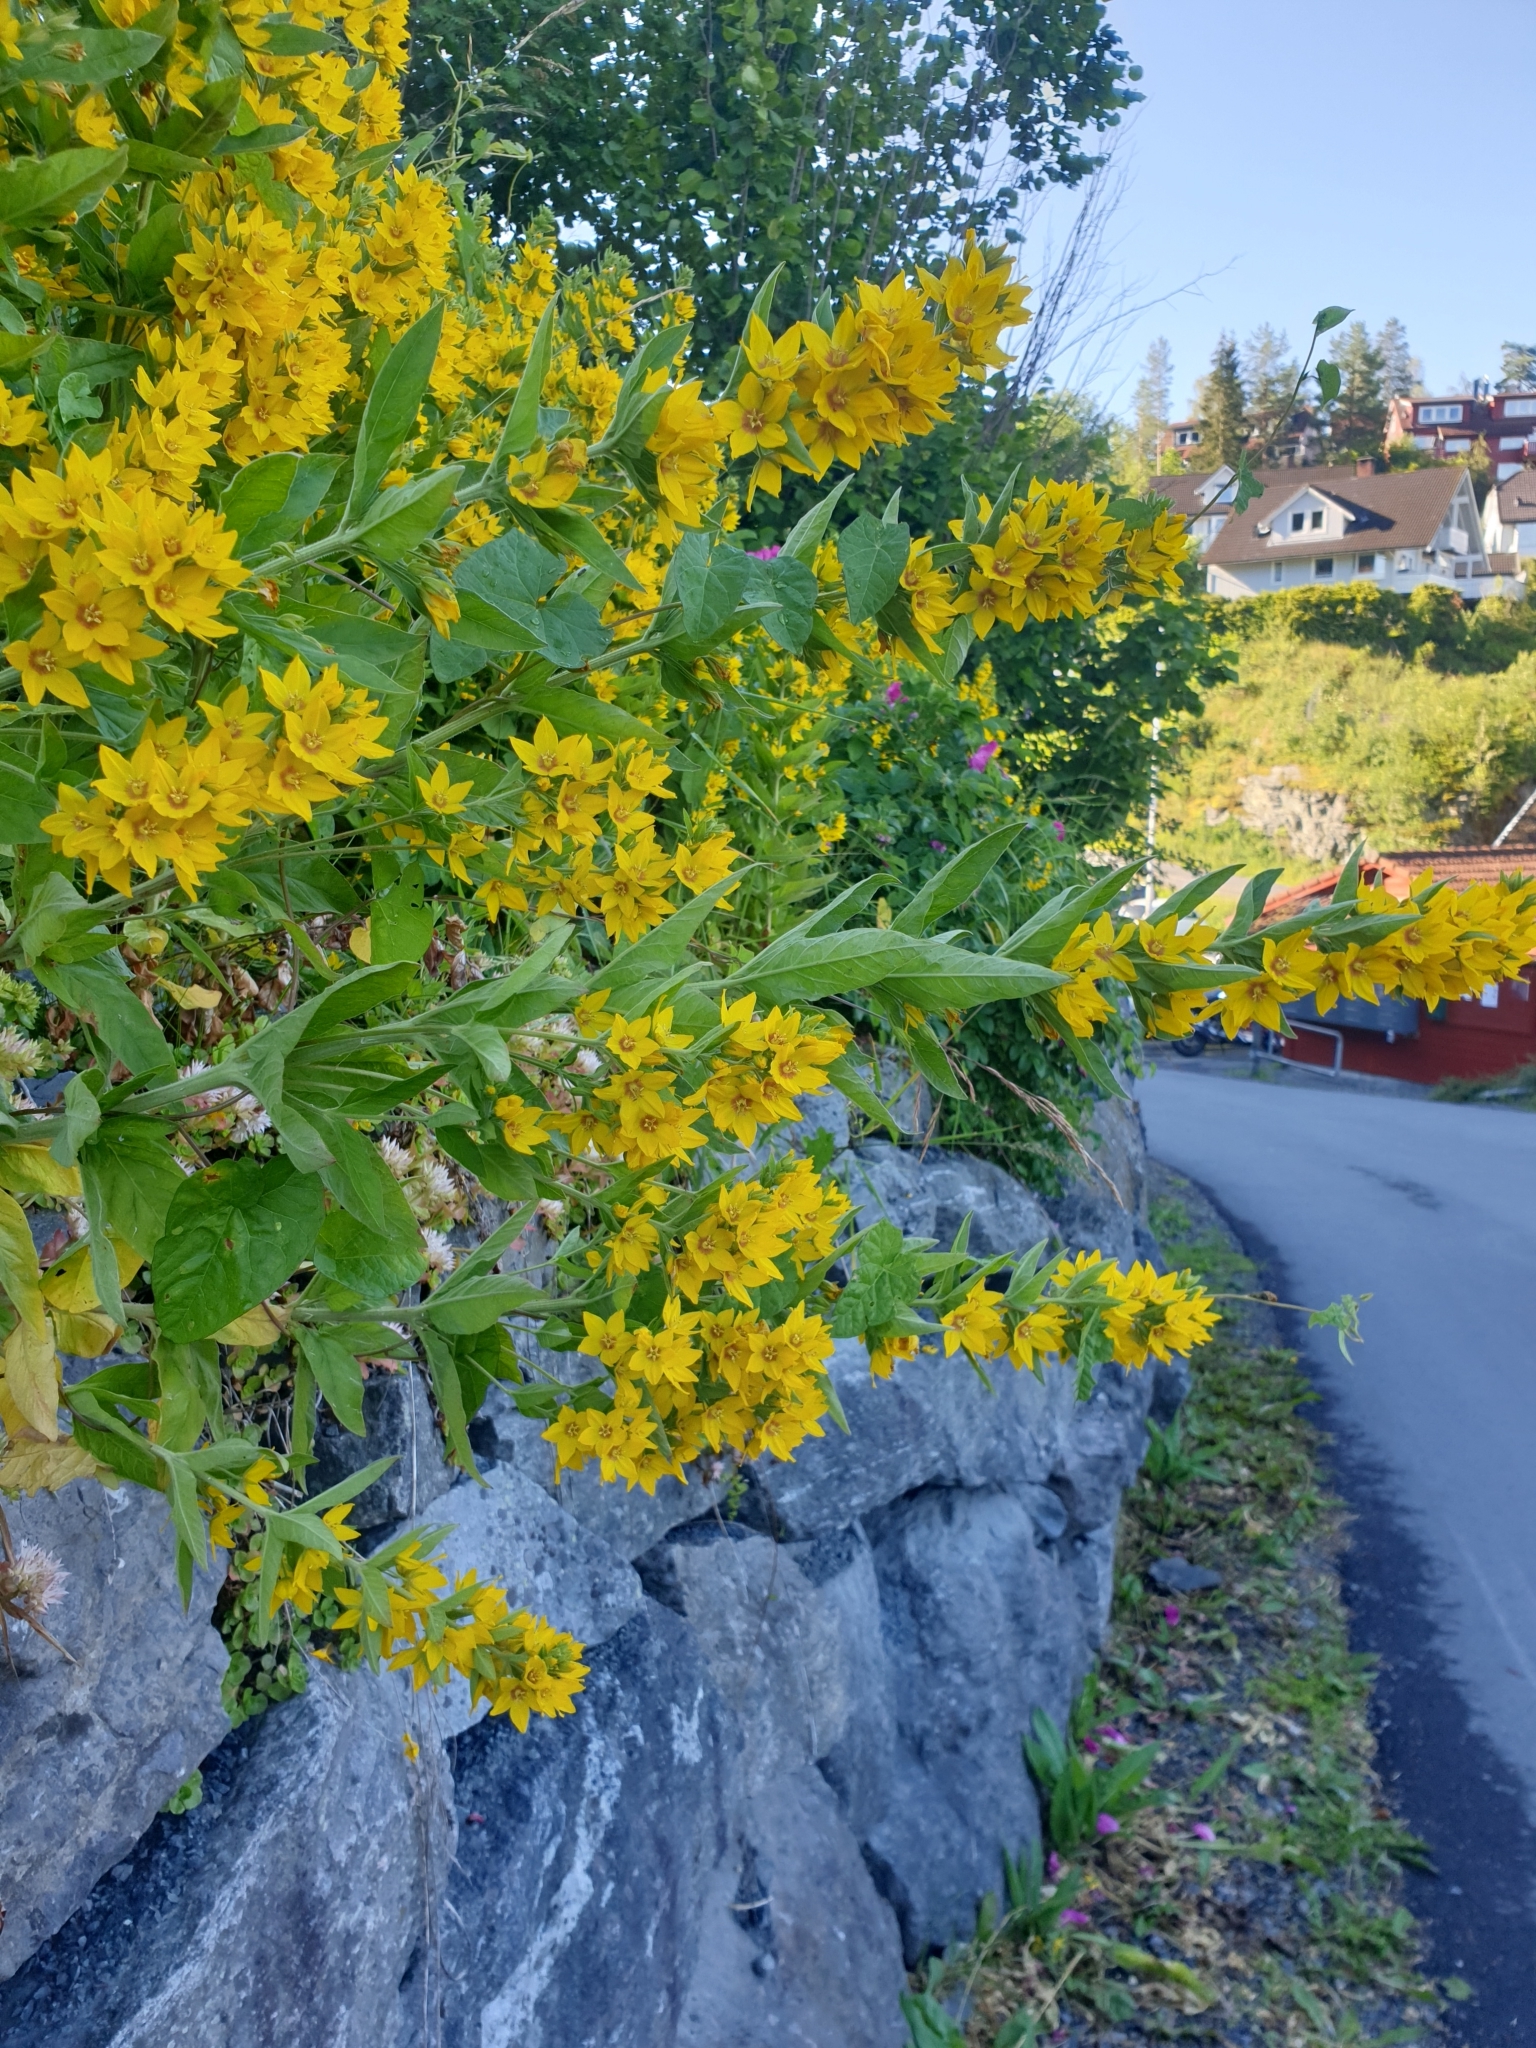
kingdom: Plantae
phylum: Tracheophyta
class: Magnoliopsida
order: Ericales
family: Primulaceae
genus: Lysimachia
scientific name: Lysimachia punctata
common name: Dotted loosestrife
